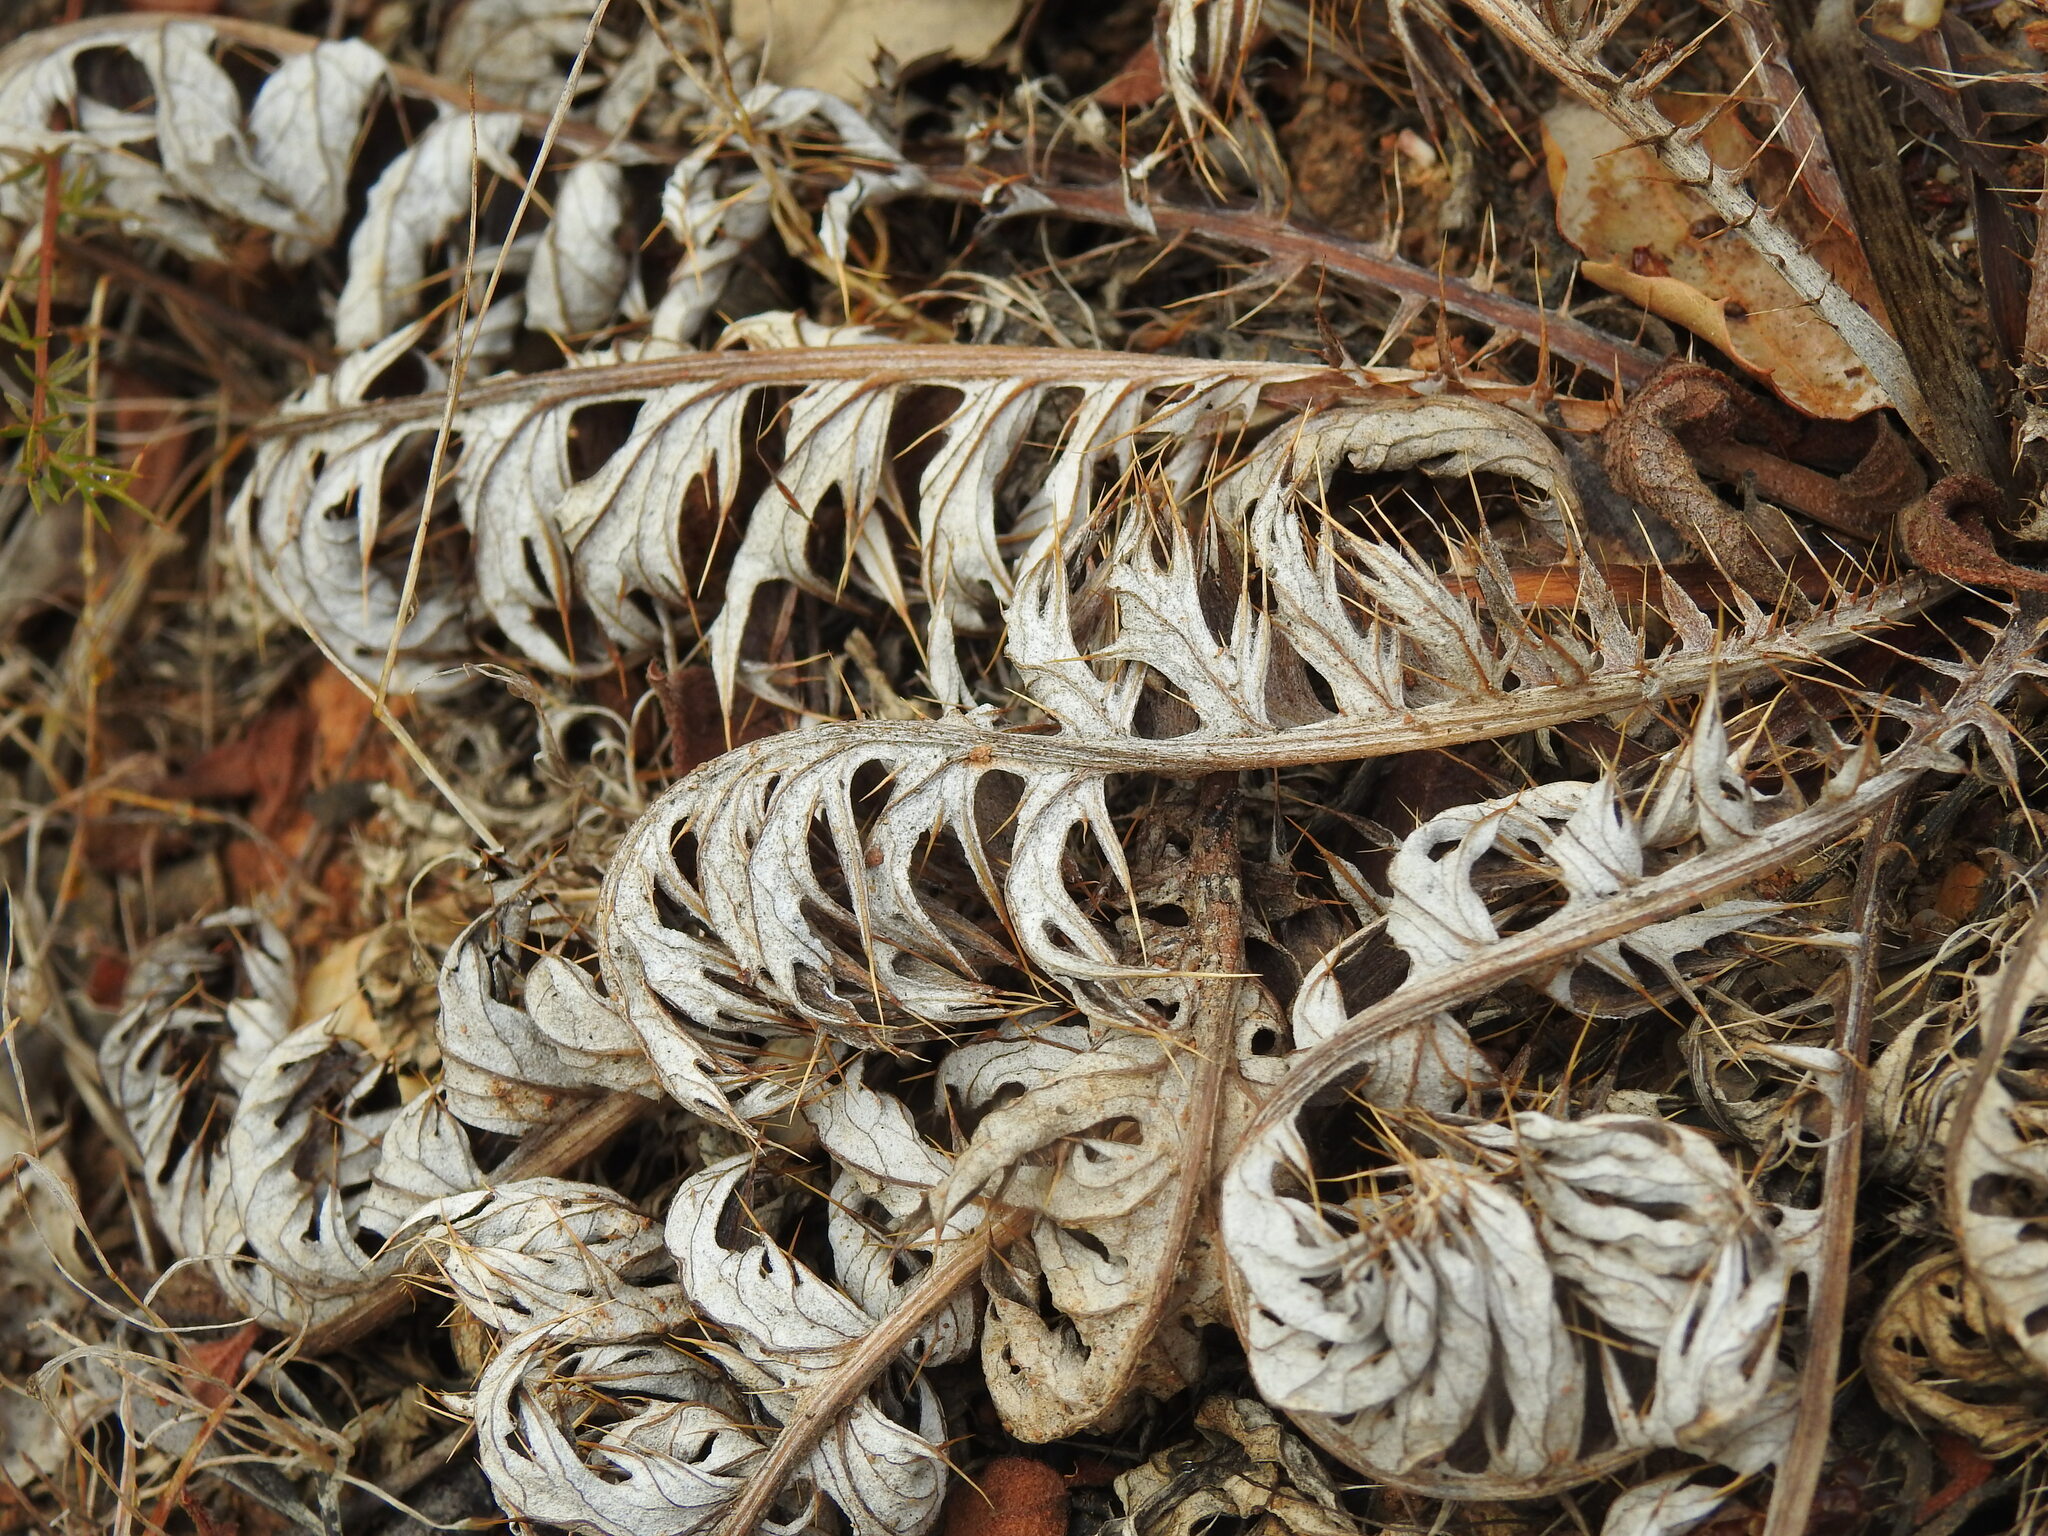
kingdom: Plantae
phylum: Tracheophyta
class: Magnoliopsida
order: Asterales
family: Asteraceae
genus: Cynara
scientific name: Cynara algarbiensis
